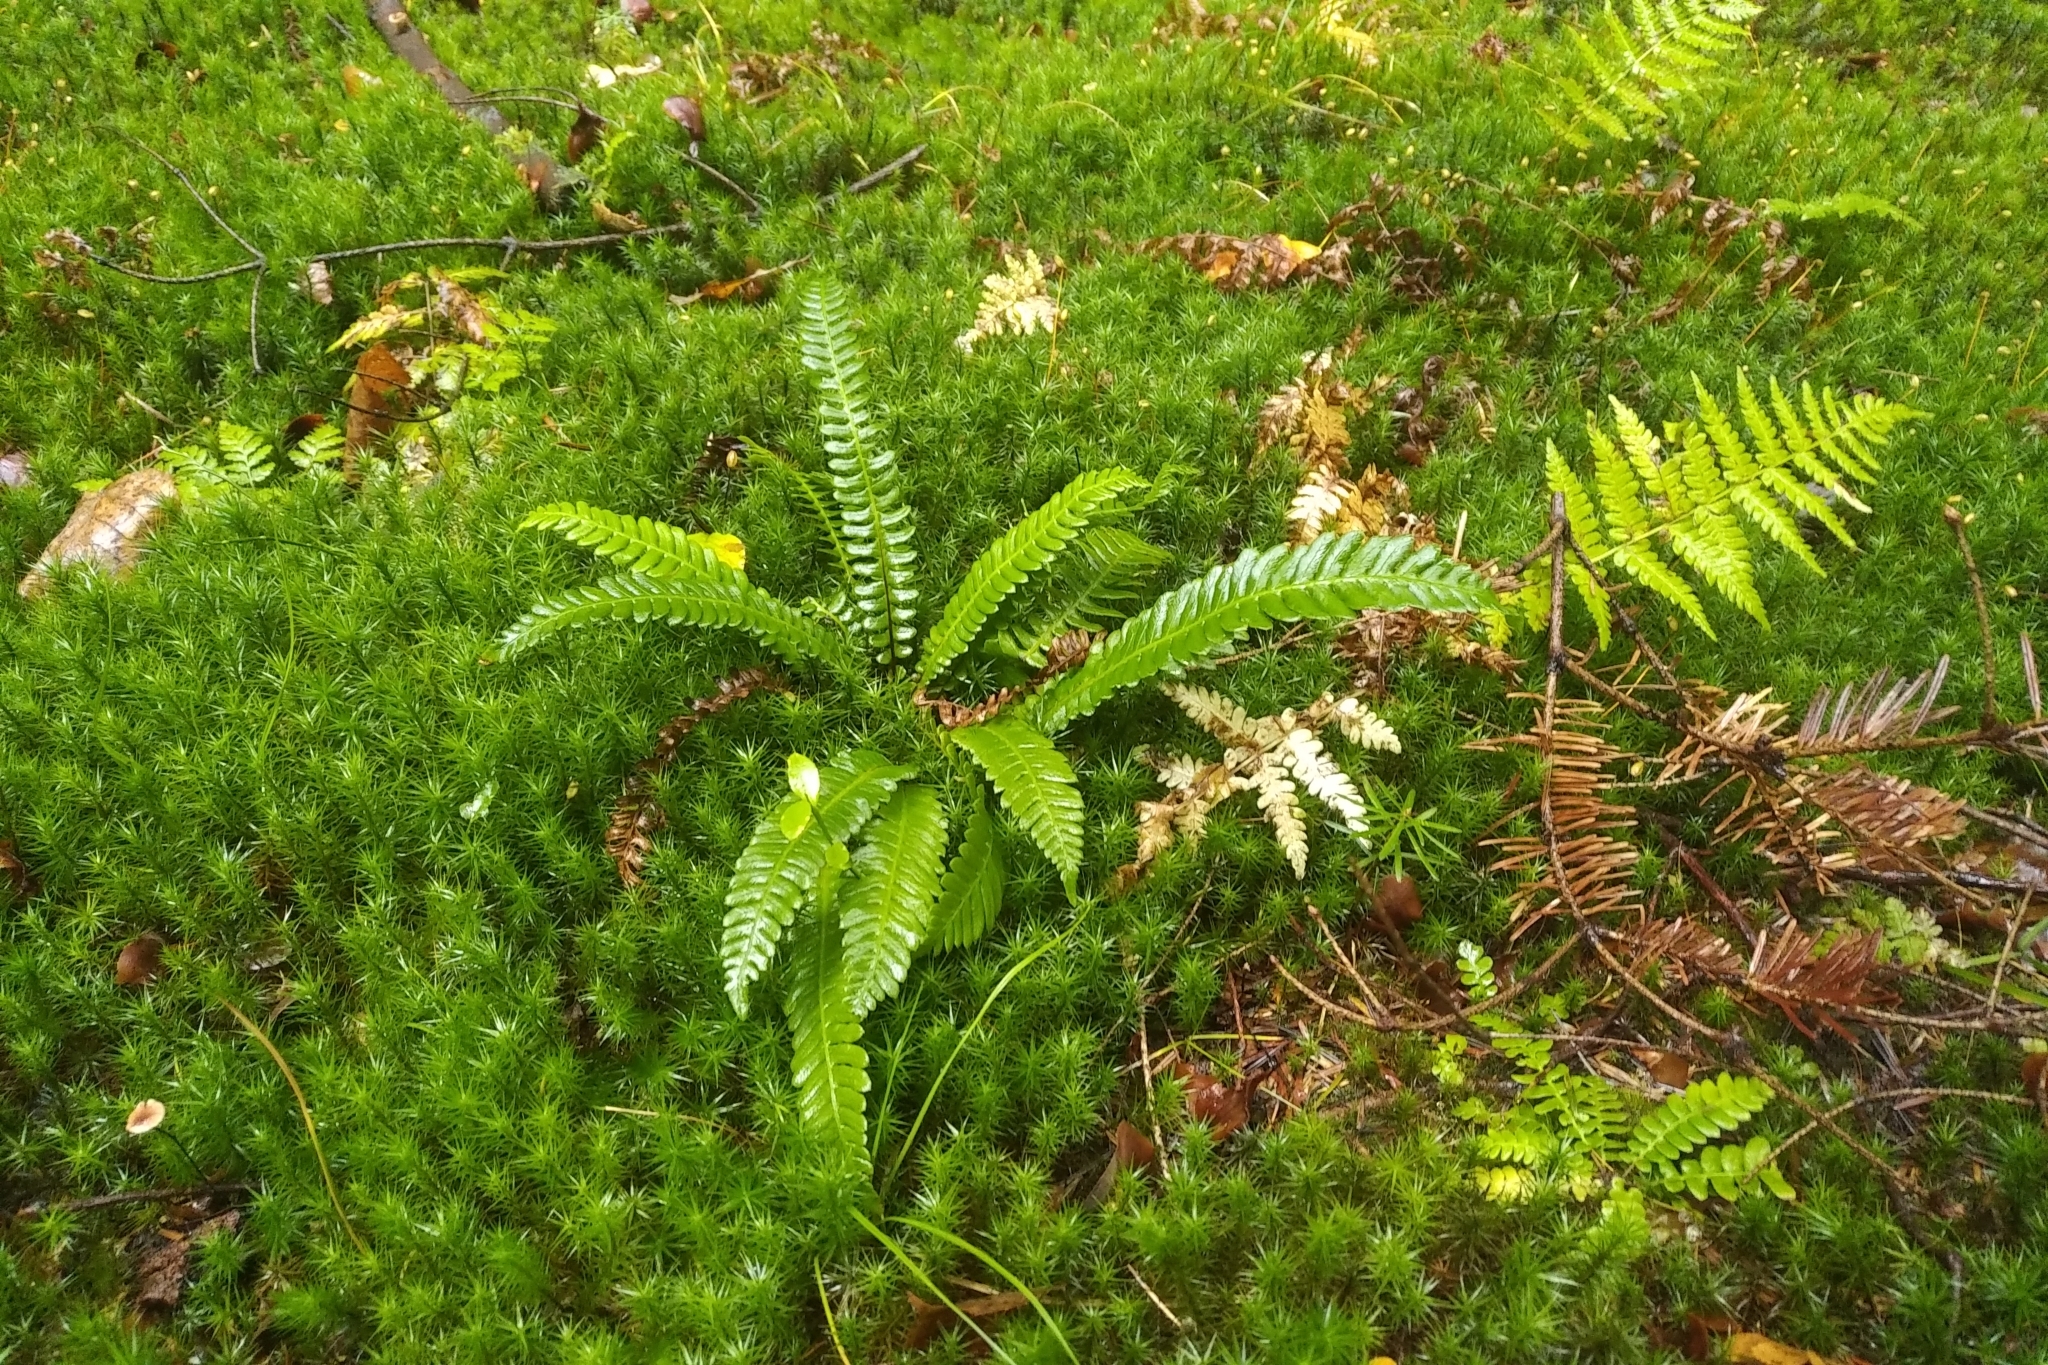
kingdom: Plantae
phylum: Tracheophyta
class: Polypodiopsida
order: Polypodiales
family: Blechnaceae
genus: Struthiopteris
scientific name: Struthiopteris spicant
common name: Deer fern
